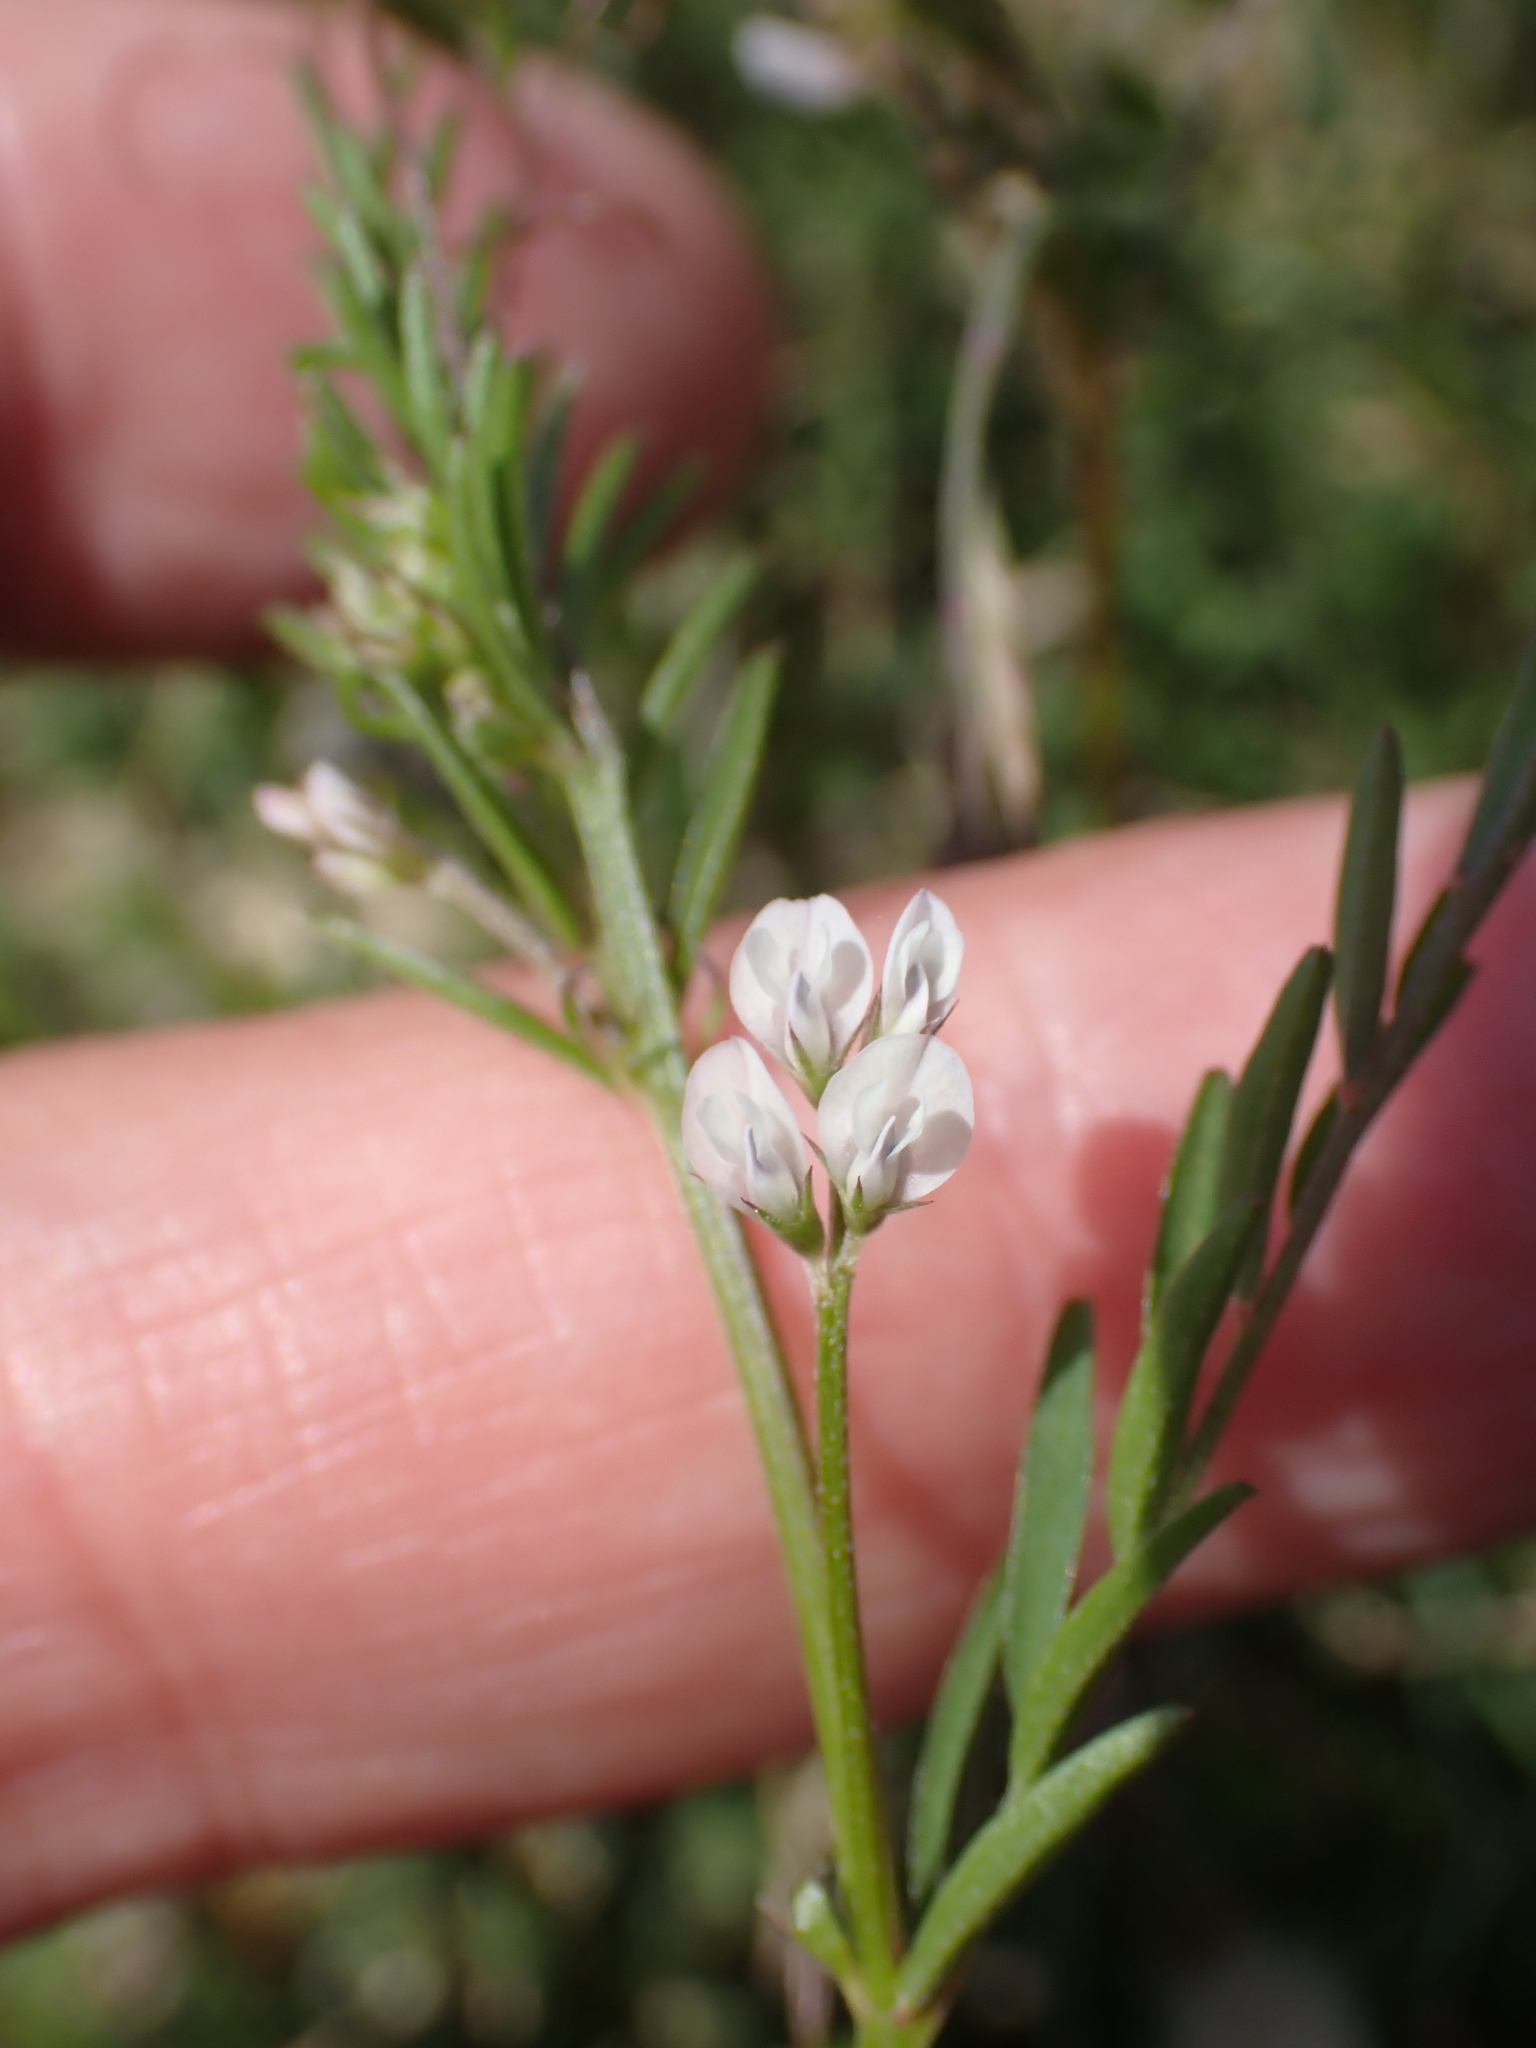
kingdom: Plantae
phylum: Tracheophyta
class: Magnoliopsida
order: Fabales
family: Fabaceae
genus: Vicia
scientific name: Vicia hirsuta
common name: Tiny vetch
